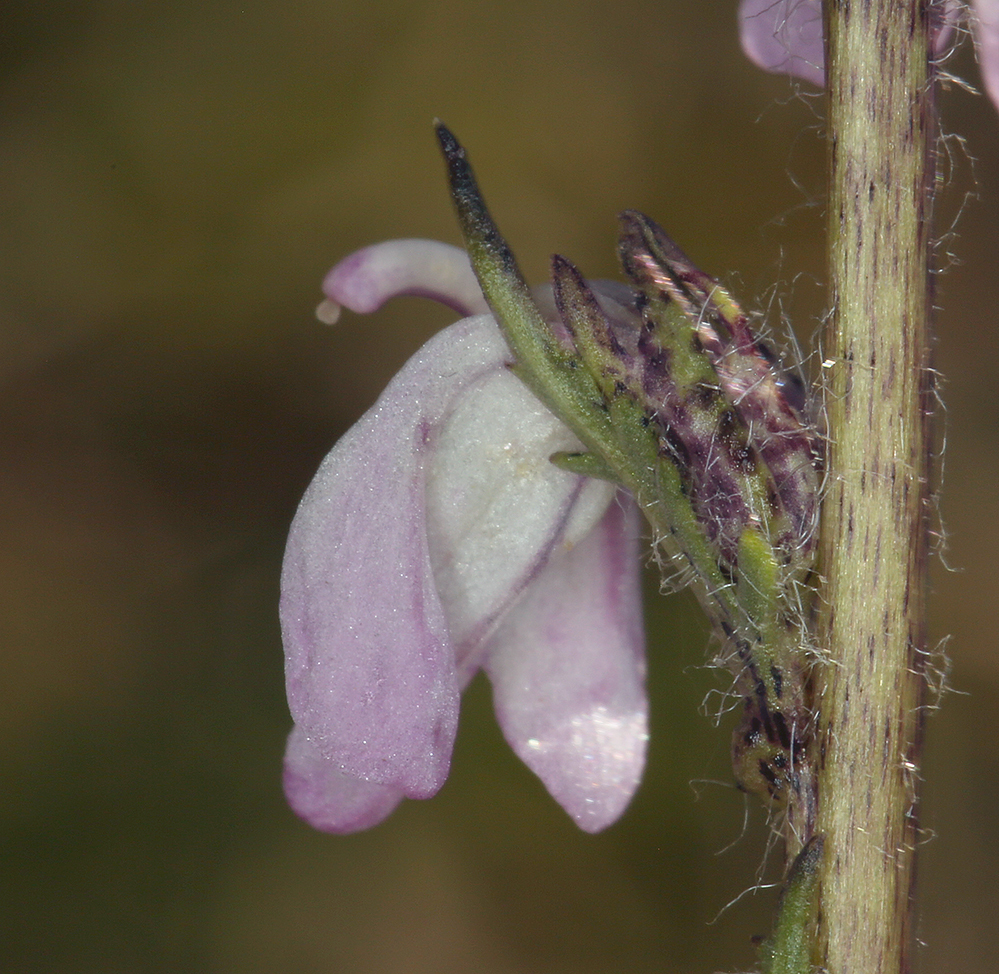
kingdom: Plantae
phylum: Tracheophyta
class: Magnoliopsida
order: Lamiales
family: Orobanchaceae
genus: Pedicularis
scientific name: Pedicularis attollens
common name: Slender pedicularis
